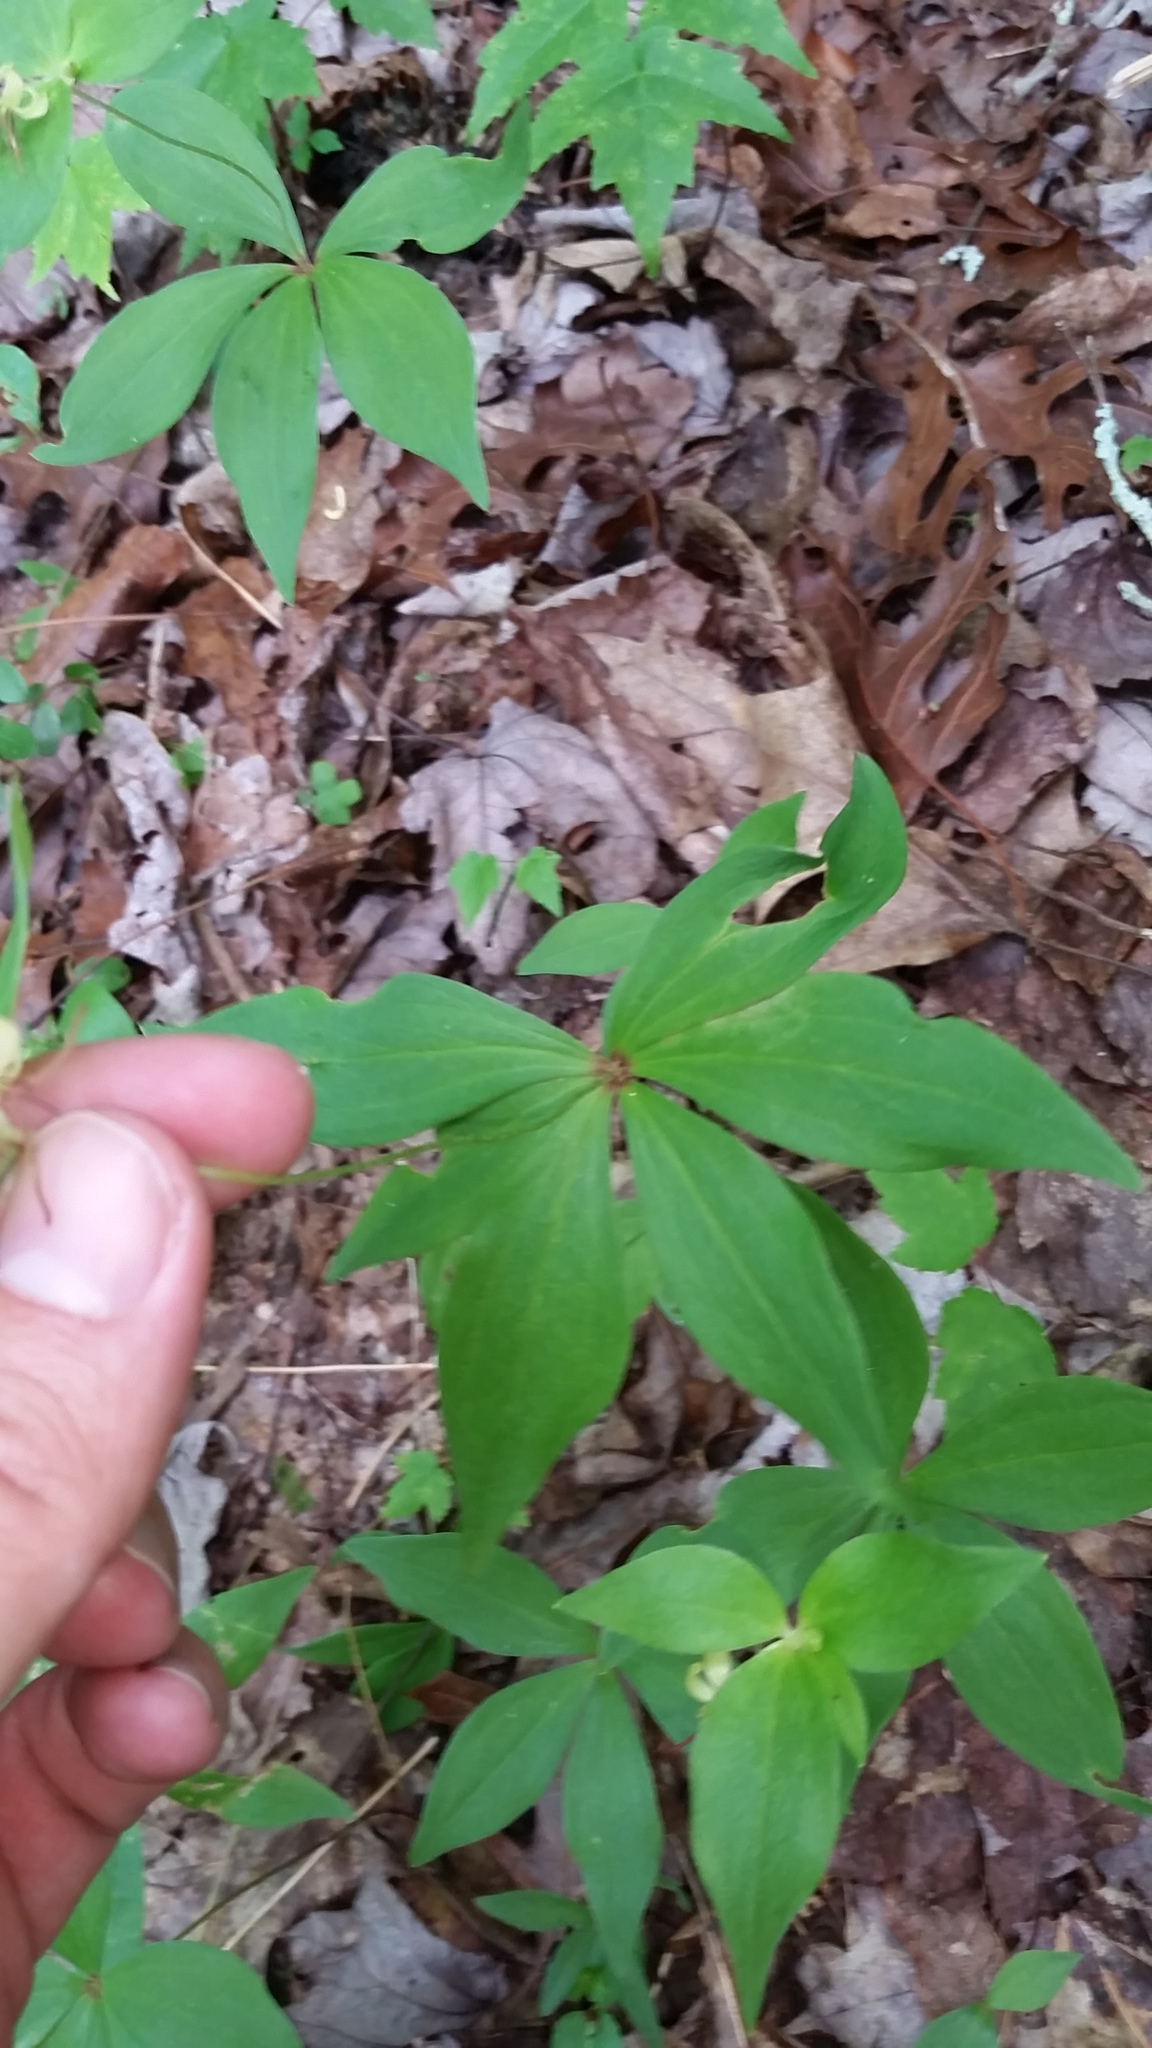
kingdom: Plantae
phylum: Tracheophyta
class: Liliopsida
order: Liliales
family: Liliaceae
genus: Medeola
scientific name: Medeola virginiana
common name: Indian cucumber-root
